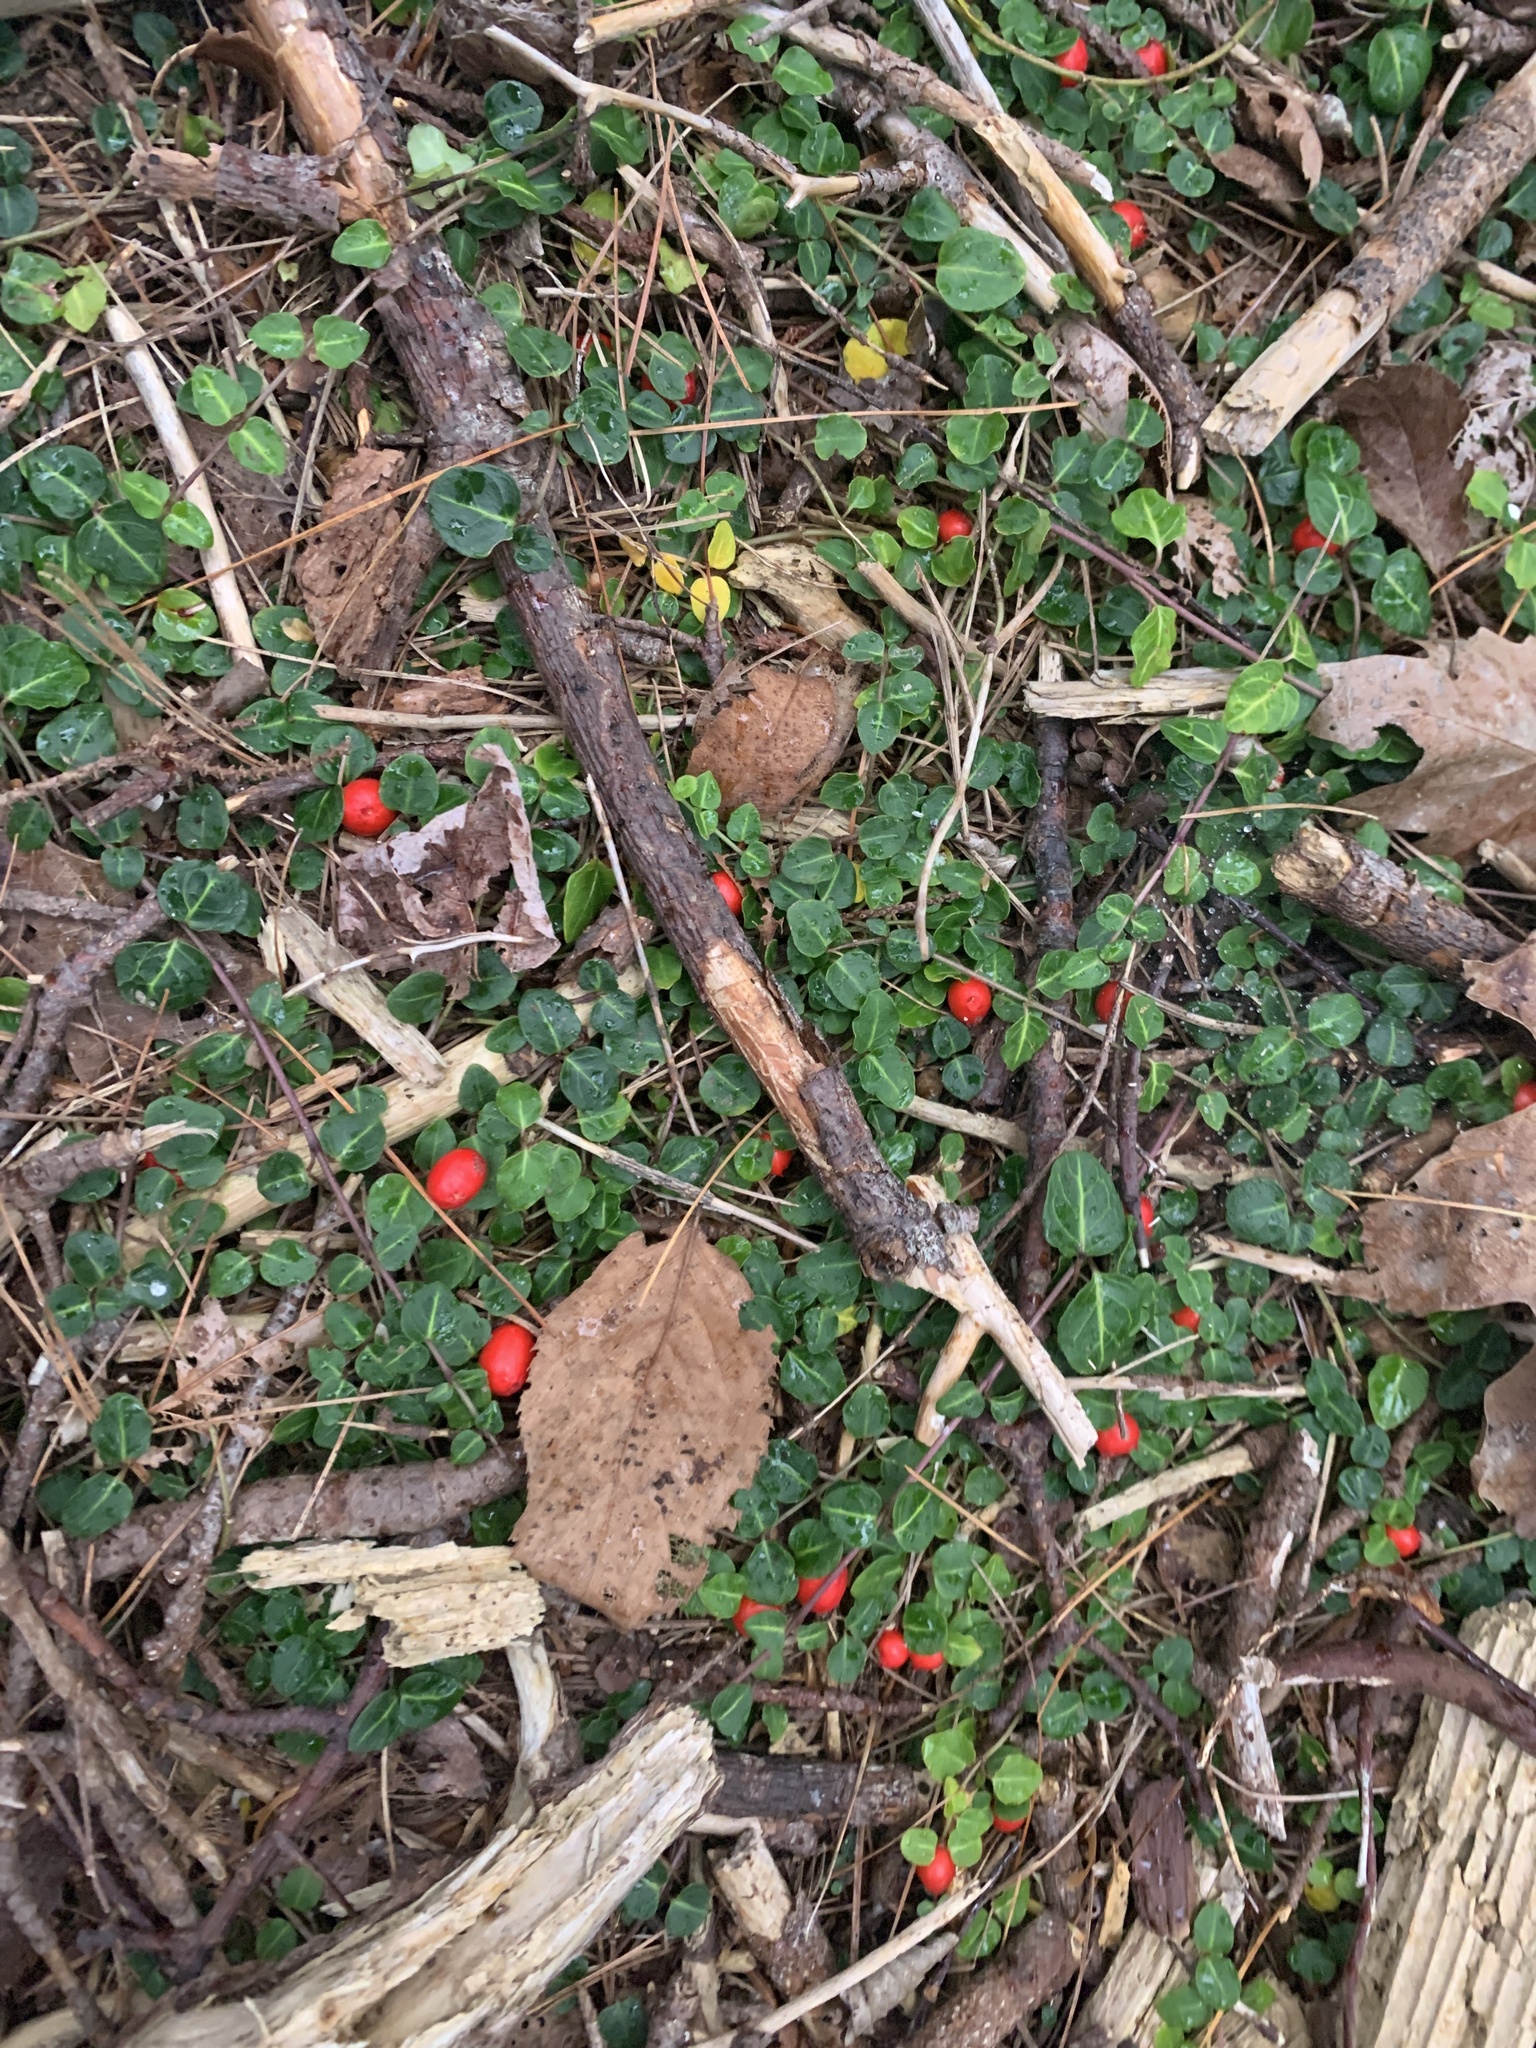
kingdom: Plantae
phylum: Tracheophyta
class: Magnoliopsida
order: Gentianales
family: Rubiaceae
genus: Mitchella
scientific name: Mitchella repens
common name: Partridge-berry
